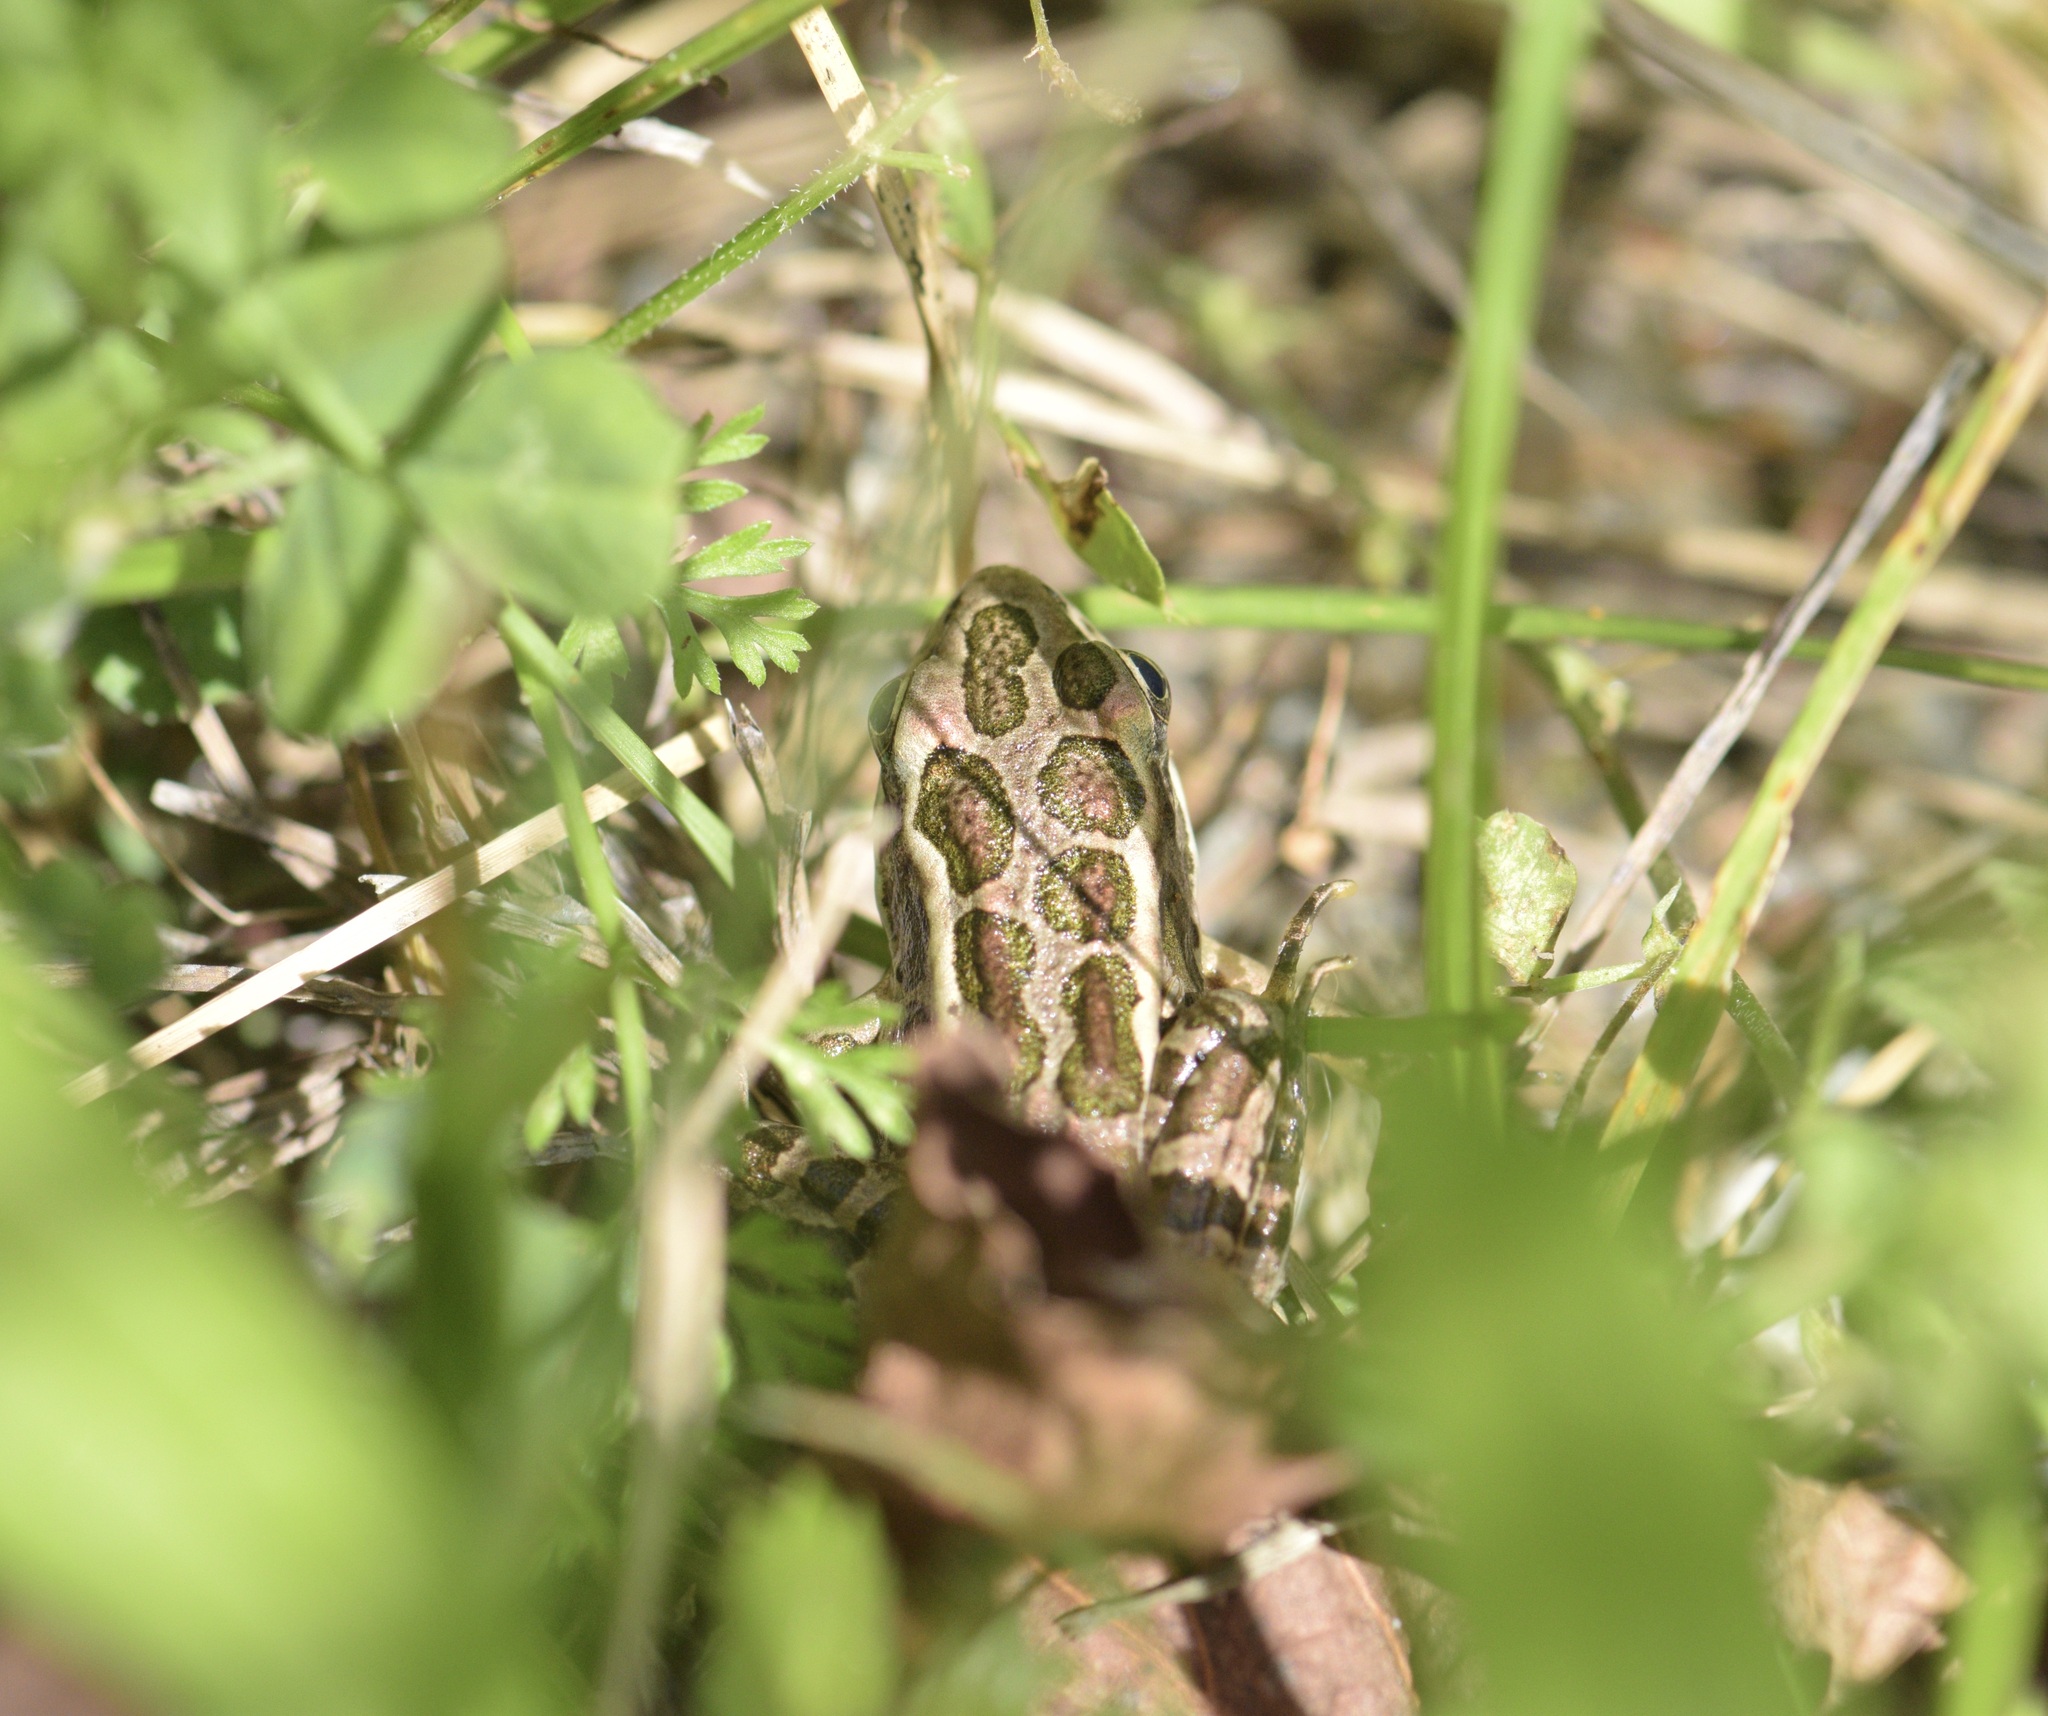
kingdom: Animalia
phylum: Chordata
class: Amphibia
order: Anura
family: Ranidae
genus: Lithobates
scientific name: Lithobates palustris
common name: Pickerel frog
